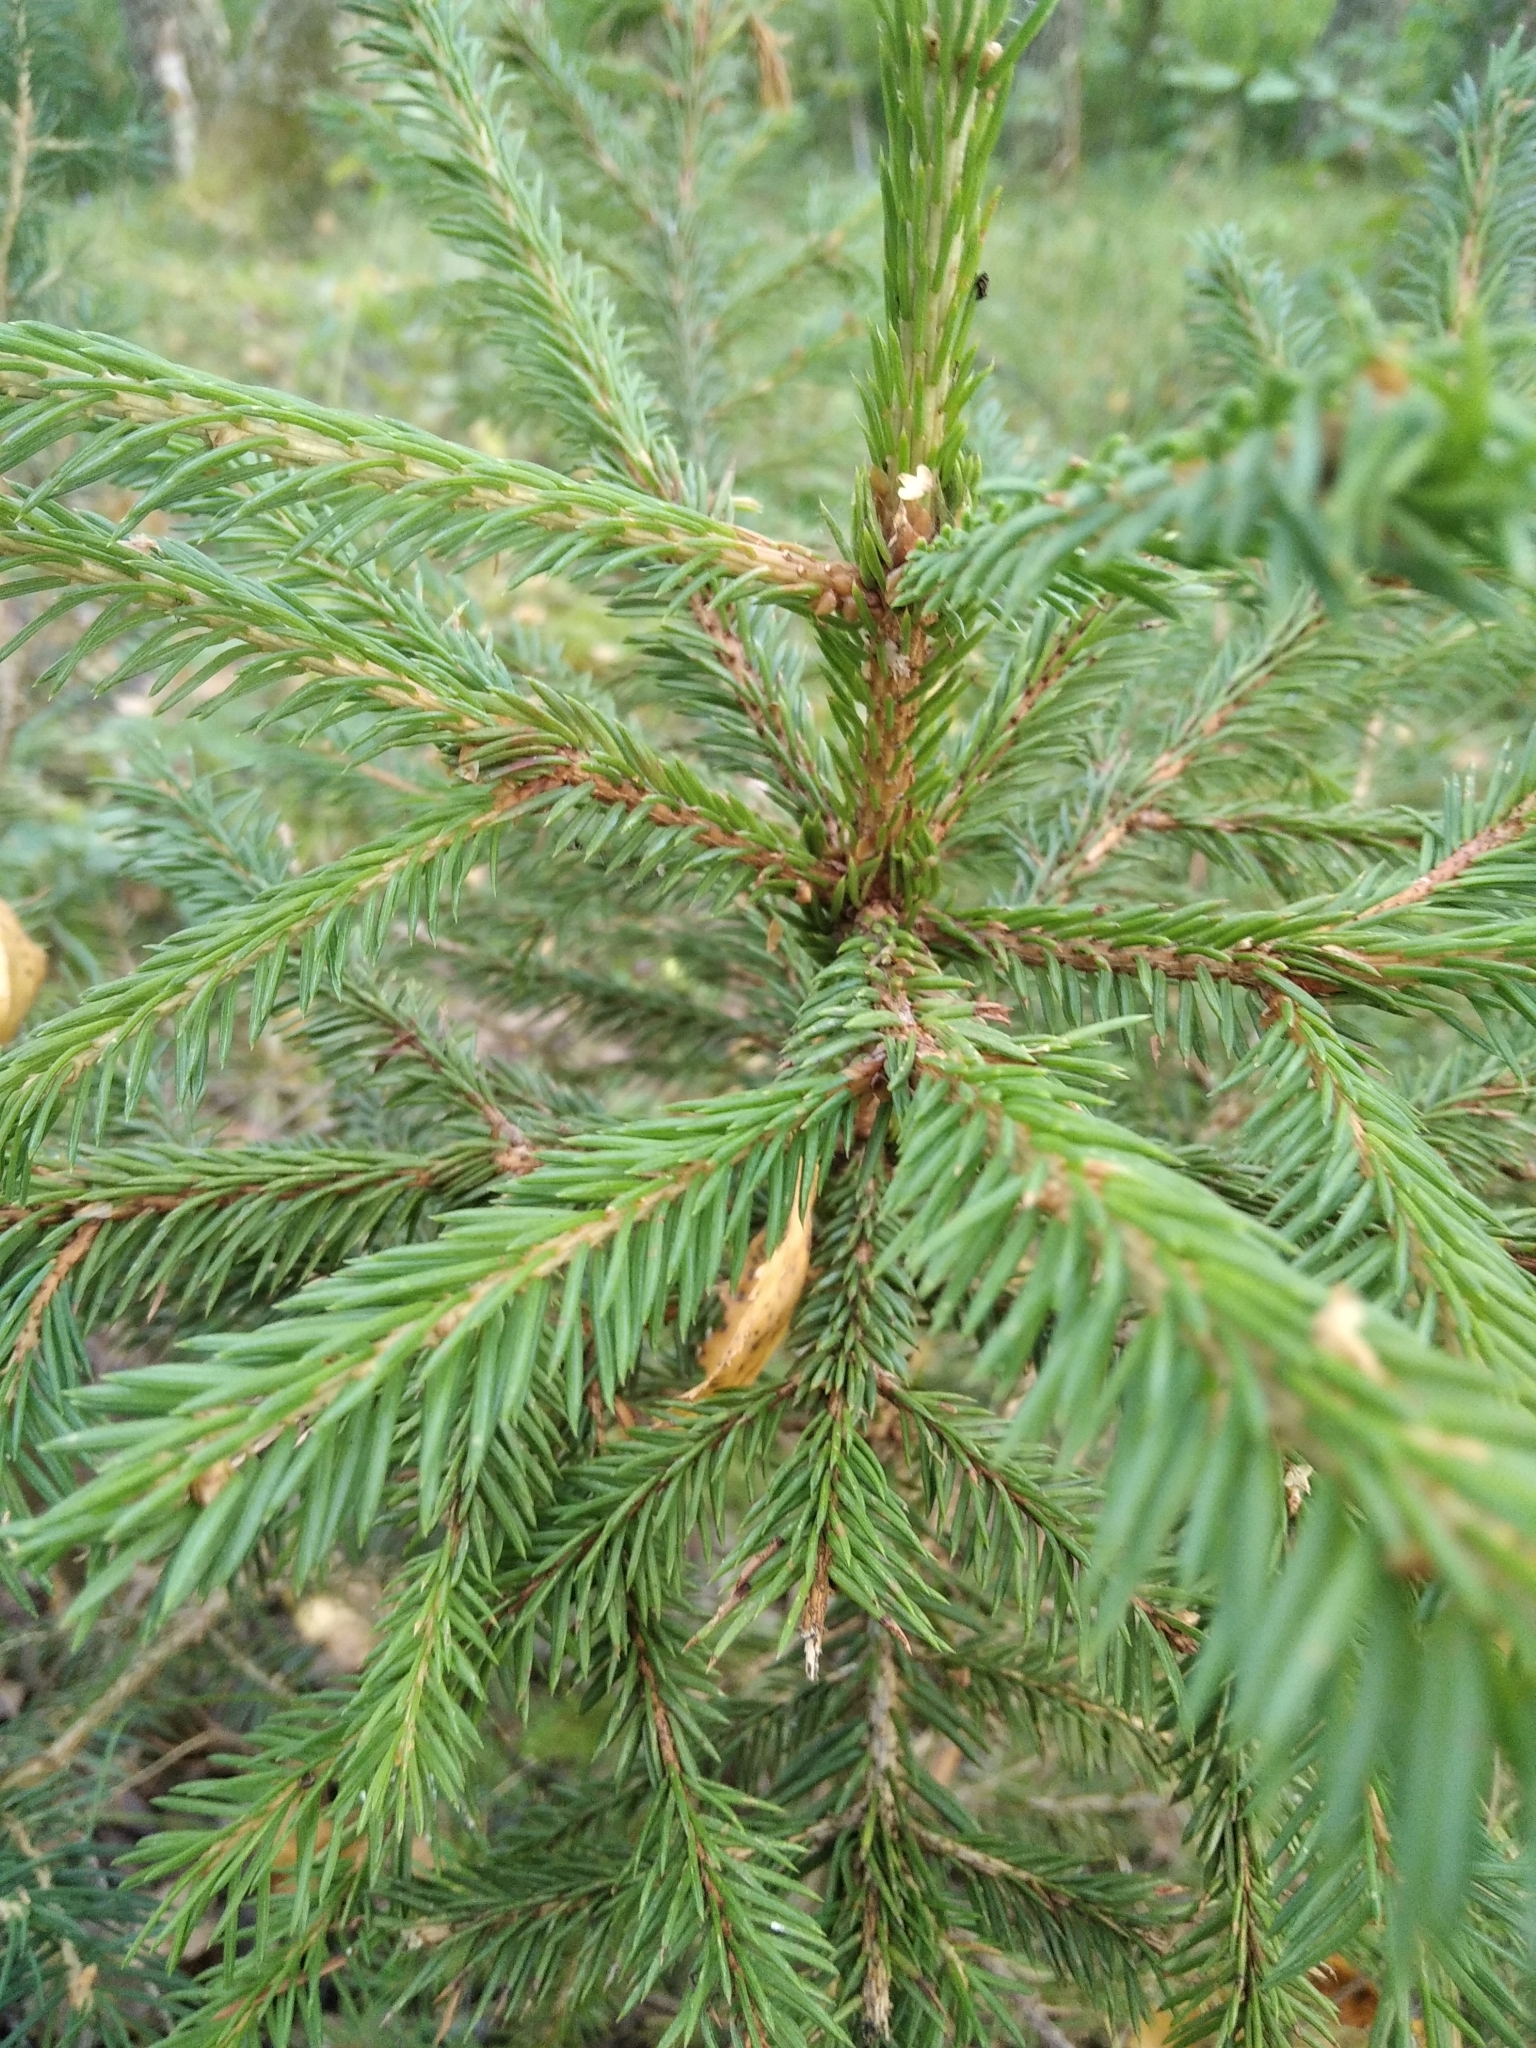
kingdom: Plantae
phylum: Tracheophyta
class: Pinopsida
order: Pinales
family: Pinaceae
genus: Picea
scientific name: Picea abies
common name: Norway spruce
